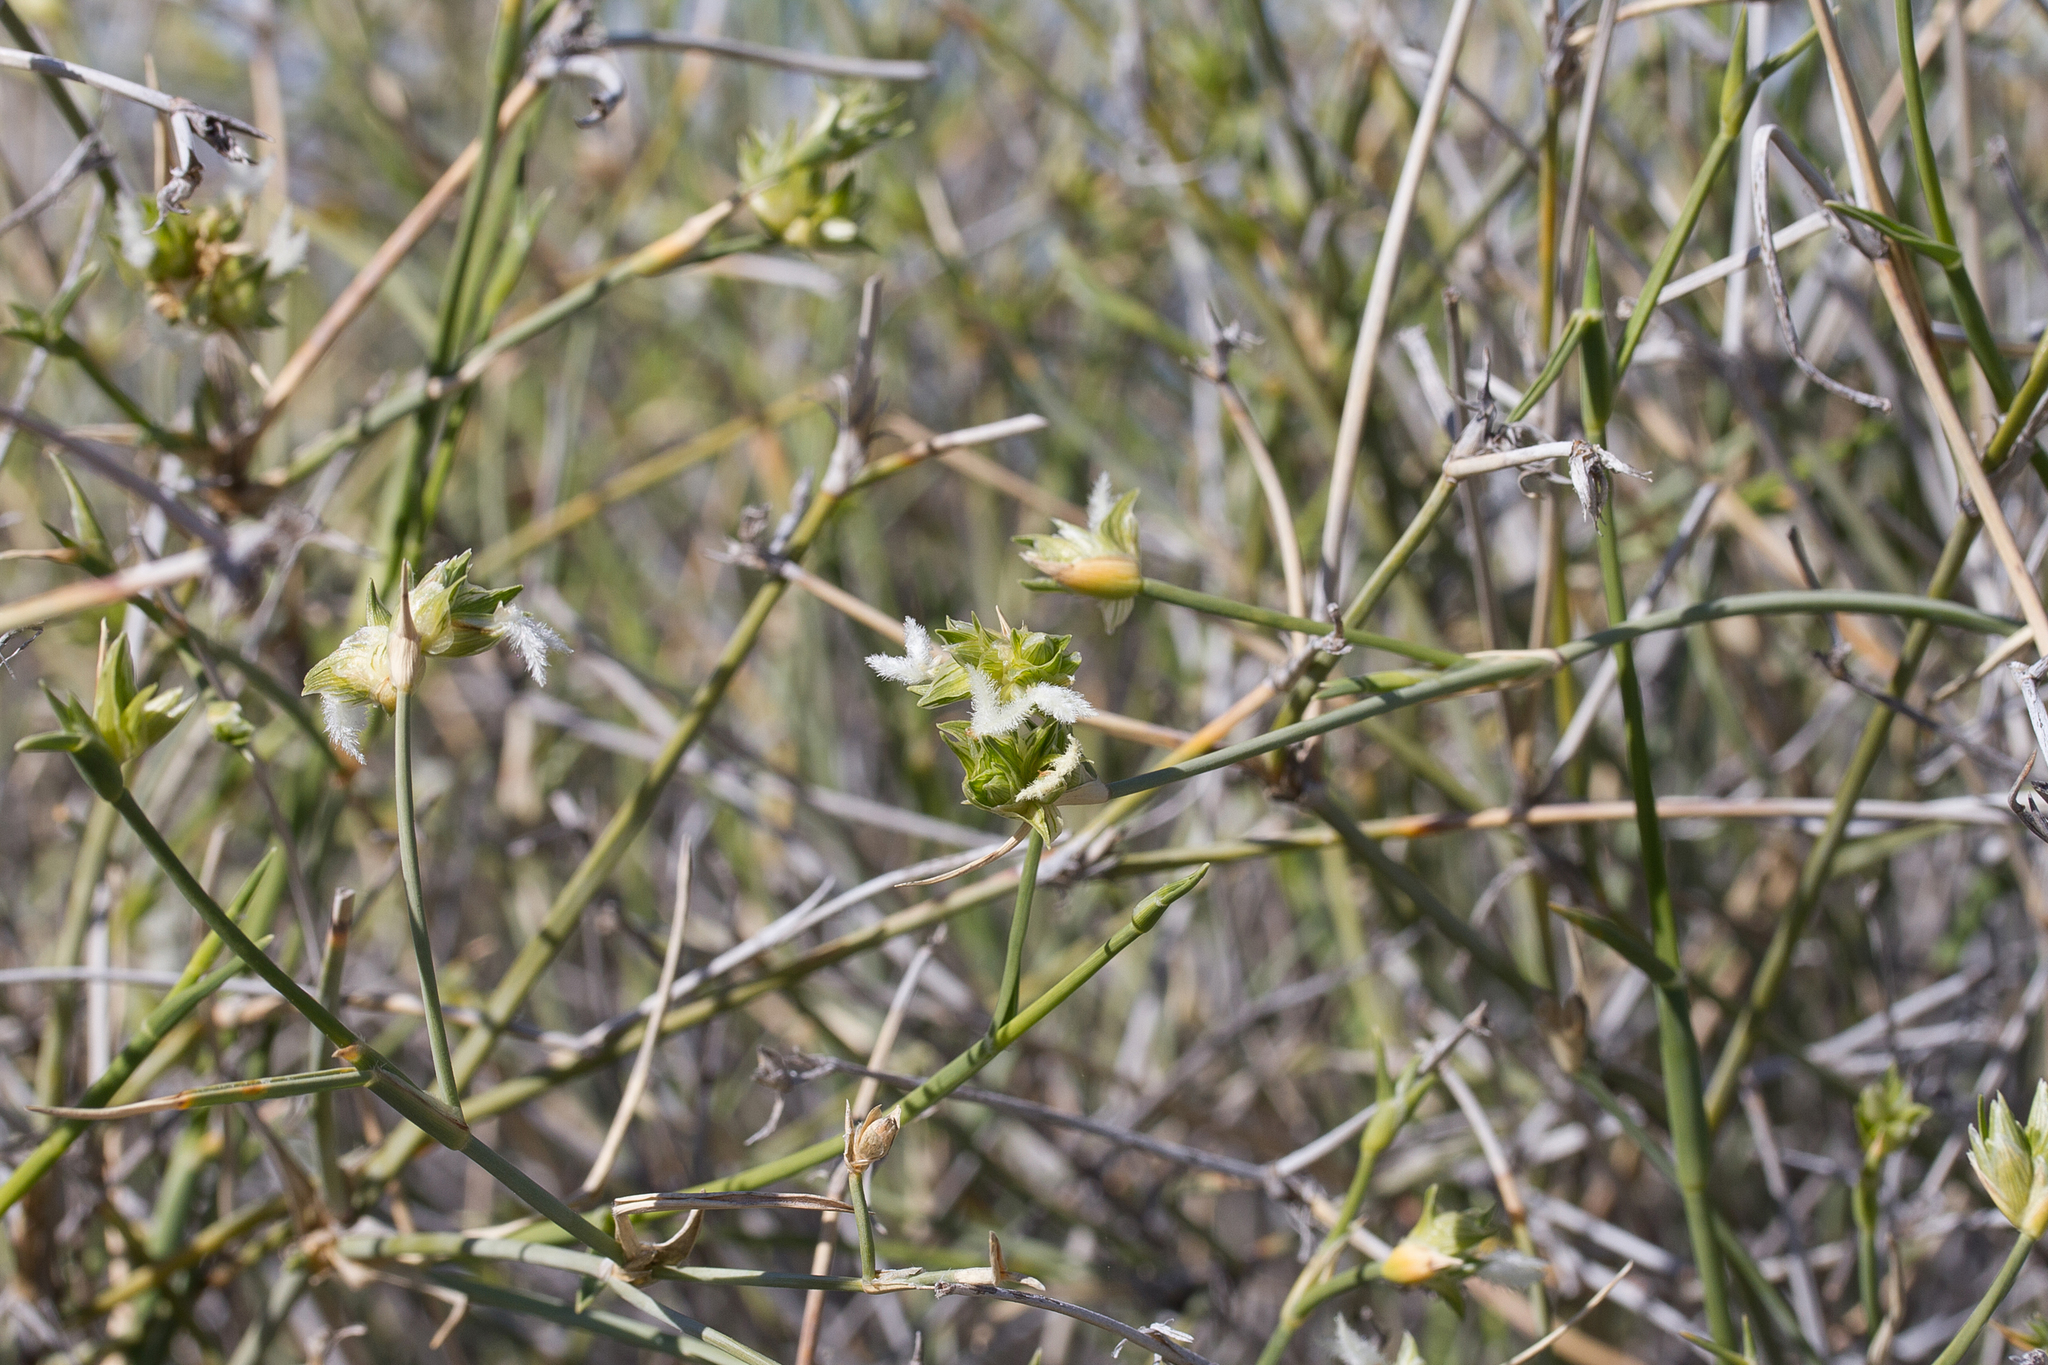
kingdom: Plantae
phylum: Tracheophyta
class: Liliopsida
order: Poales
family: Poaceae
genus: Zygochloa
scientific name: Zygochloa paradoxa
